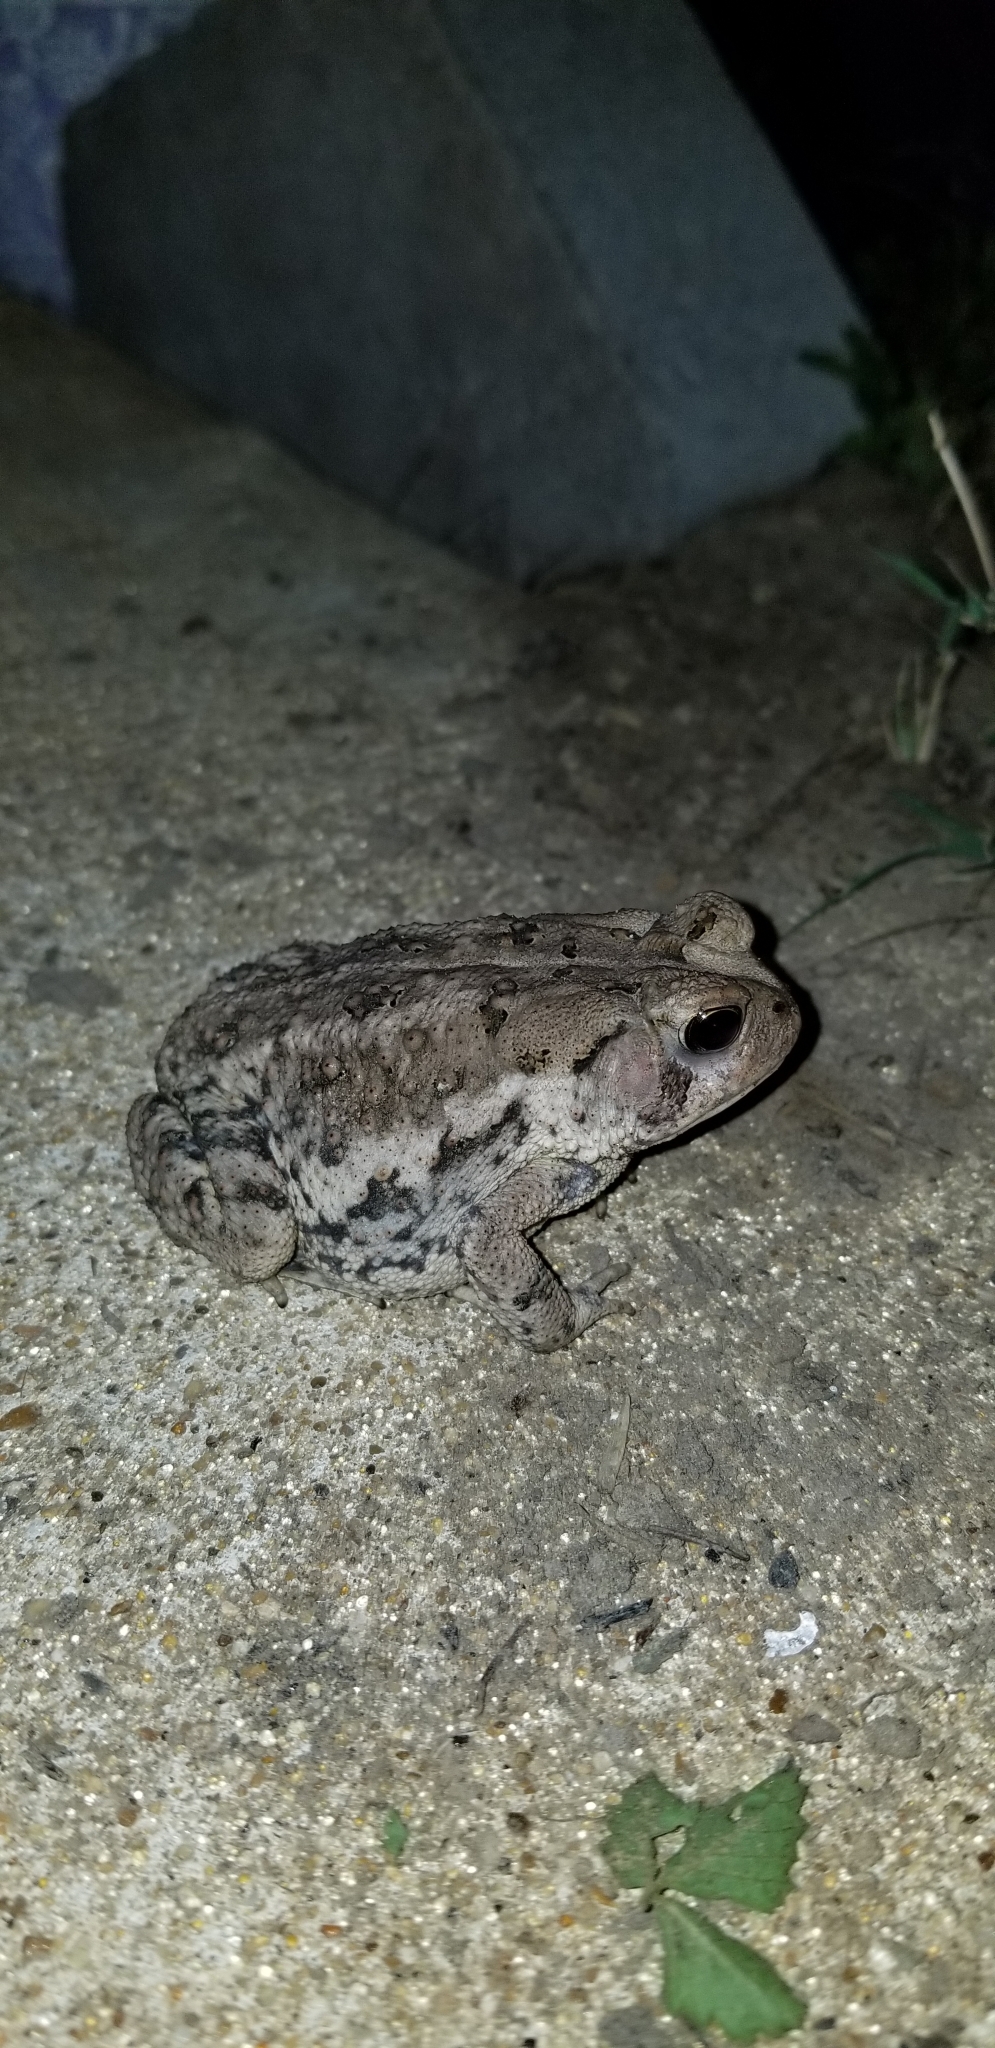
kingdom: Animalia
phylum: Chordata
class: Amphibia
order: Anura
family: Bufonidae
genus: Anaxyrus
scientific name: Anaxyrus fowleri
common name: Fowler's toad
